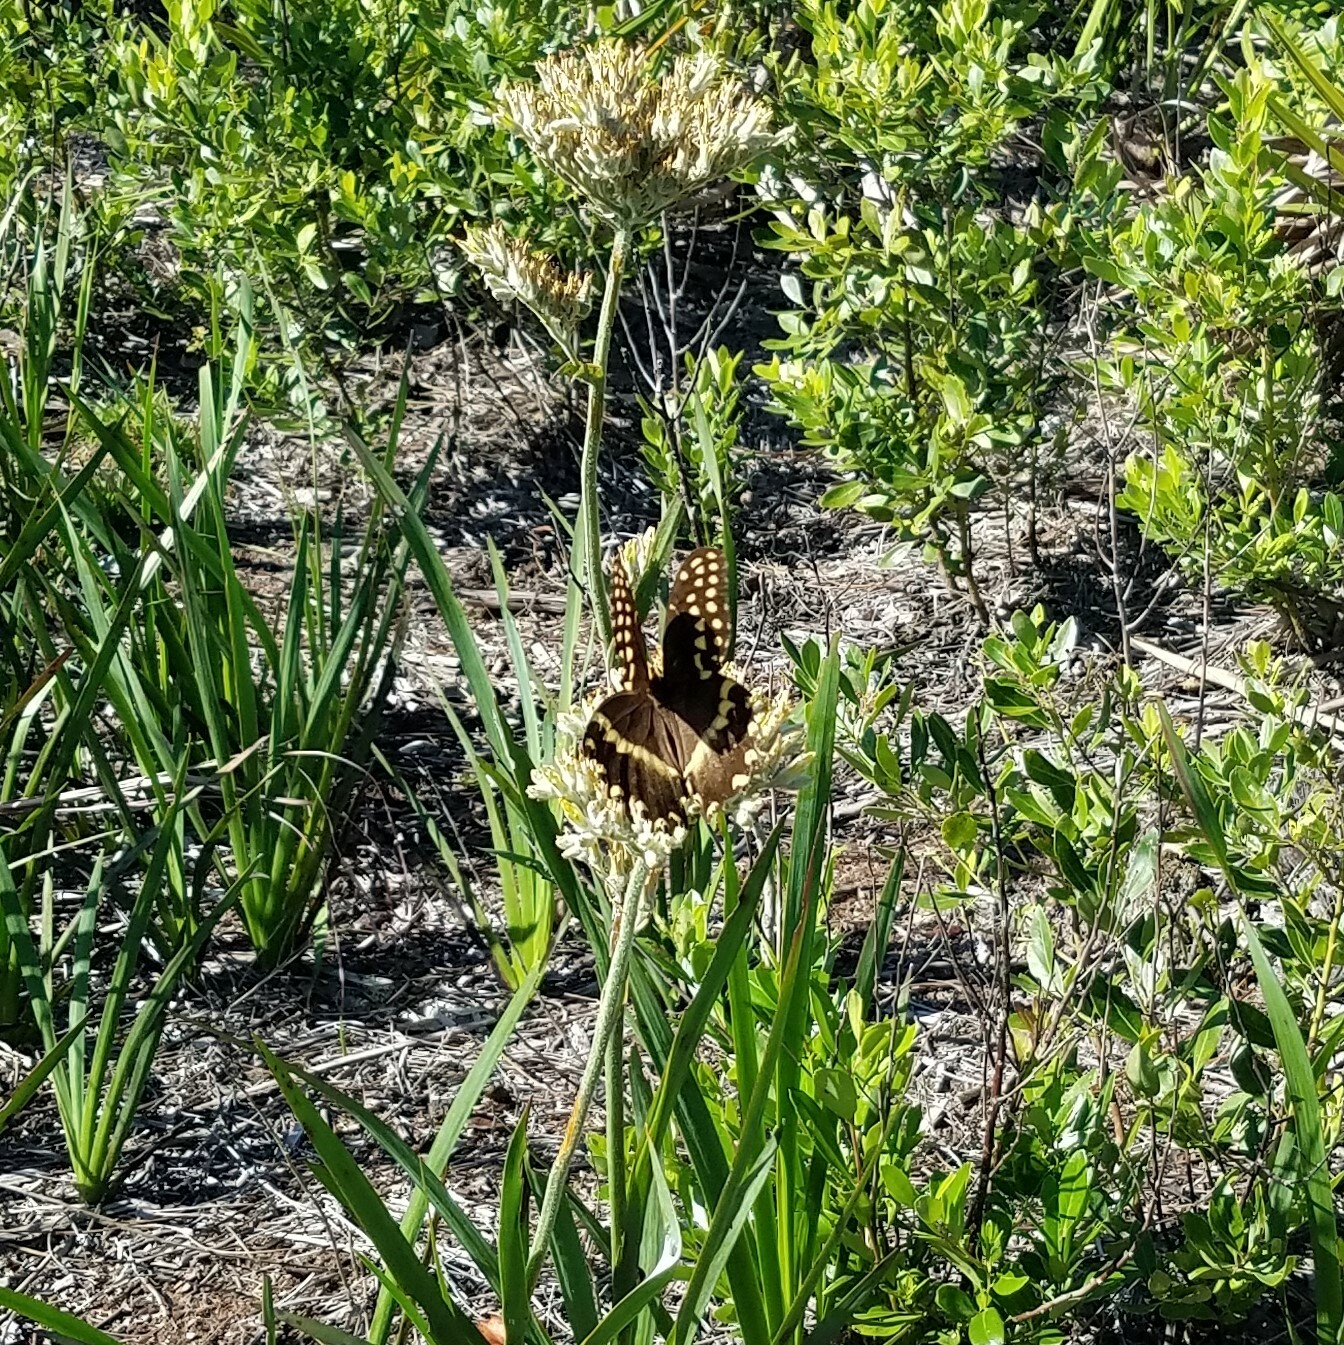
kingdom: Animalia
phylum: Arthropoda
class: Insecta
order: Lepidoptera
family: Papilionidae
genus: Papilio
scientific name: Papilio palamedes
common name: Palamedes swallowtail
